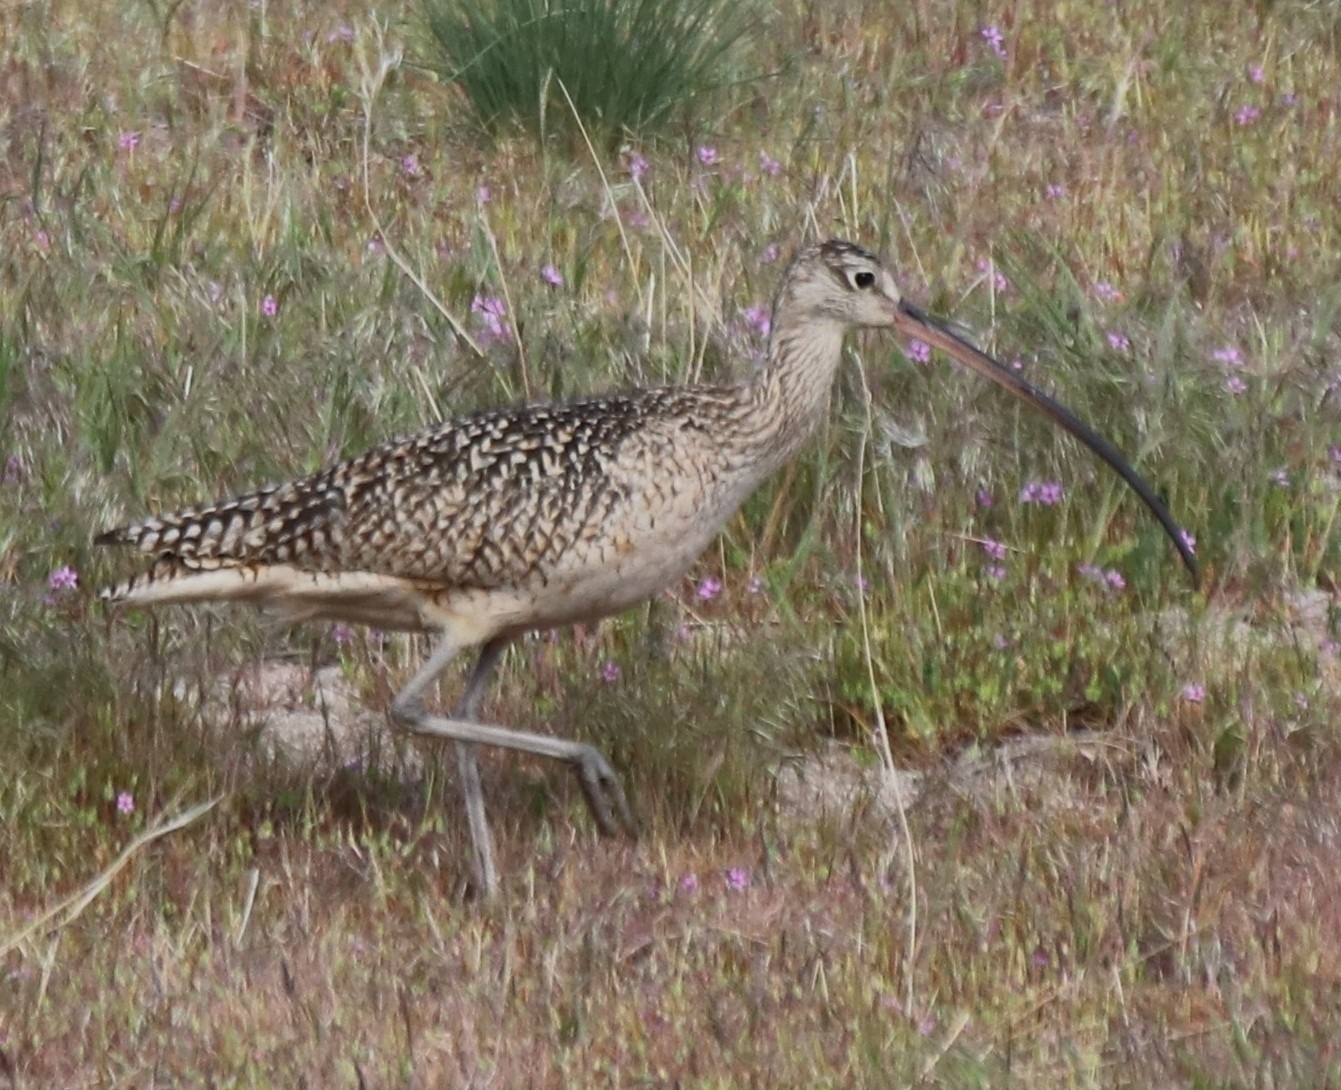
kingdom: Animalia
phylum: Chordata
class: Aves
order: Charadriiformes
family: Scolopacidae
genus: Numenius
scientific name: Numenius americanus
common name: Long-billed curlew
